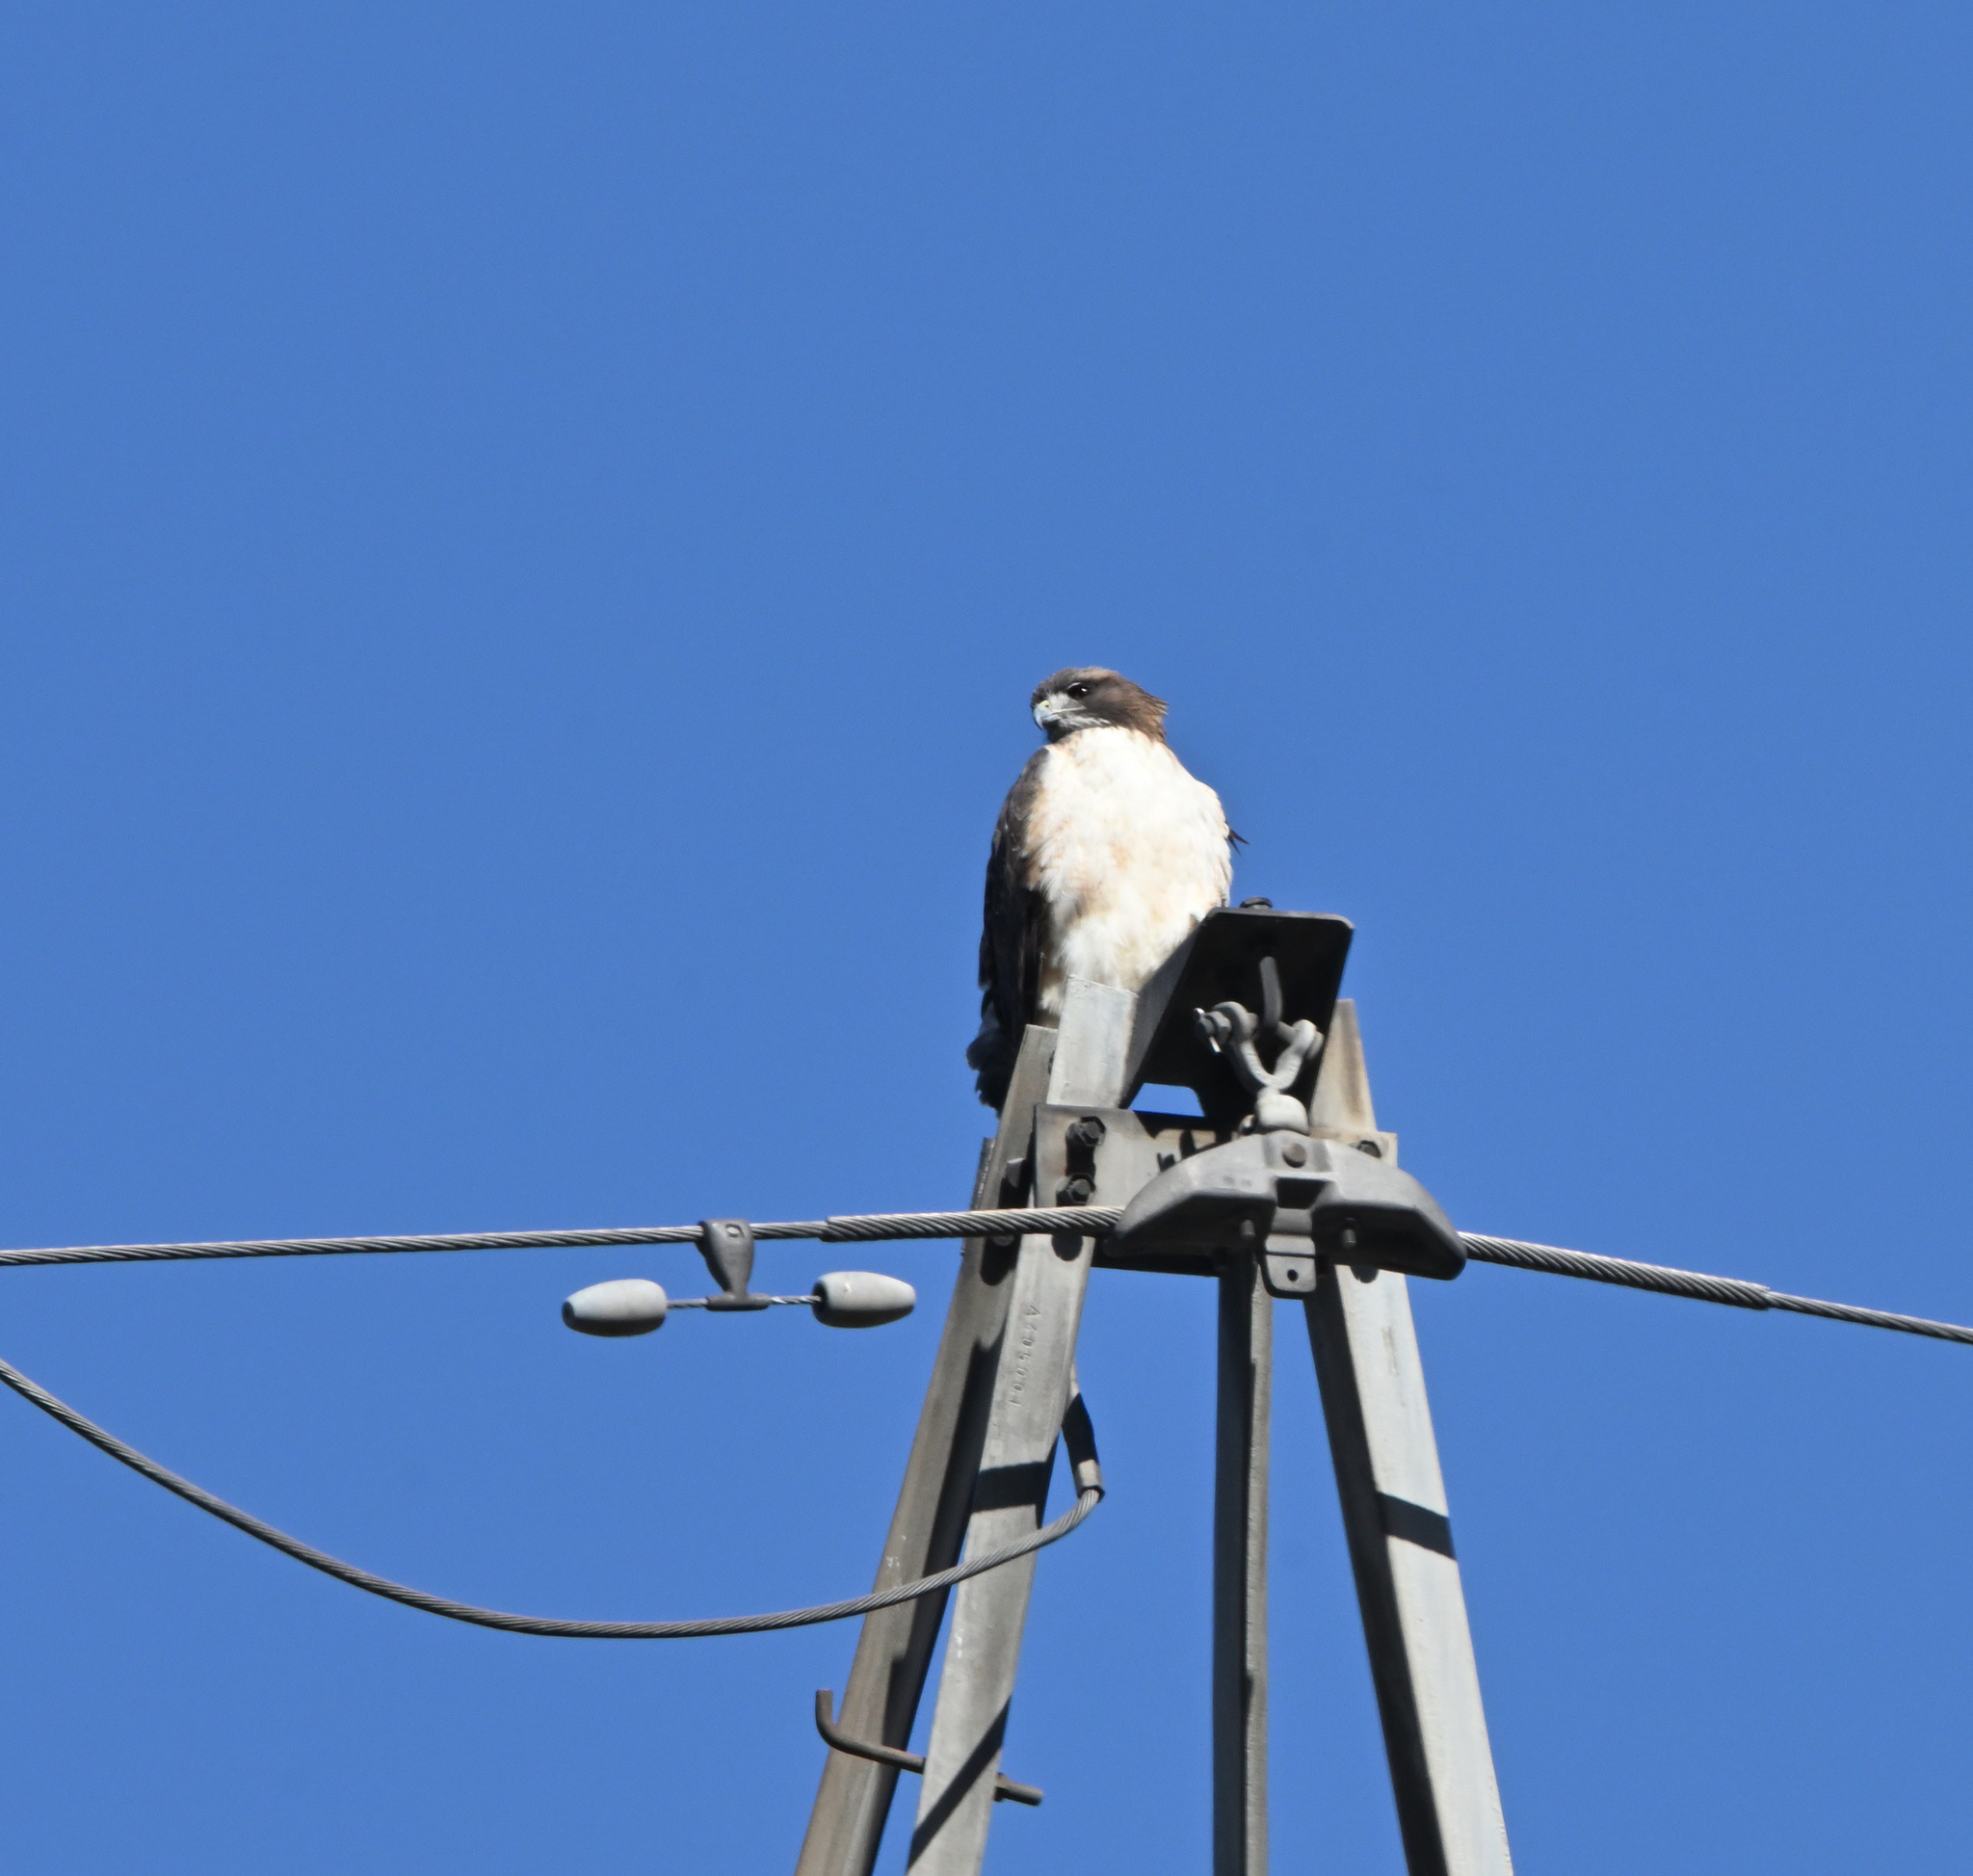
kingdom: Animalia
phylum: Chordata
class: Aves
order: Accipitriformes
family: Accipitridae
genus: Buteo
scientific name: Buteo jamaicensis
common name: Red-tailed hawk
